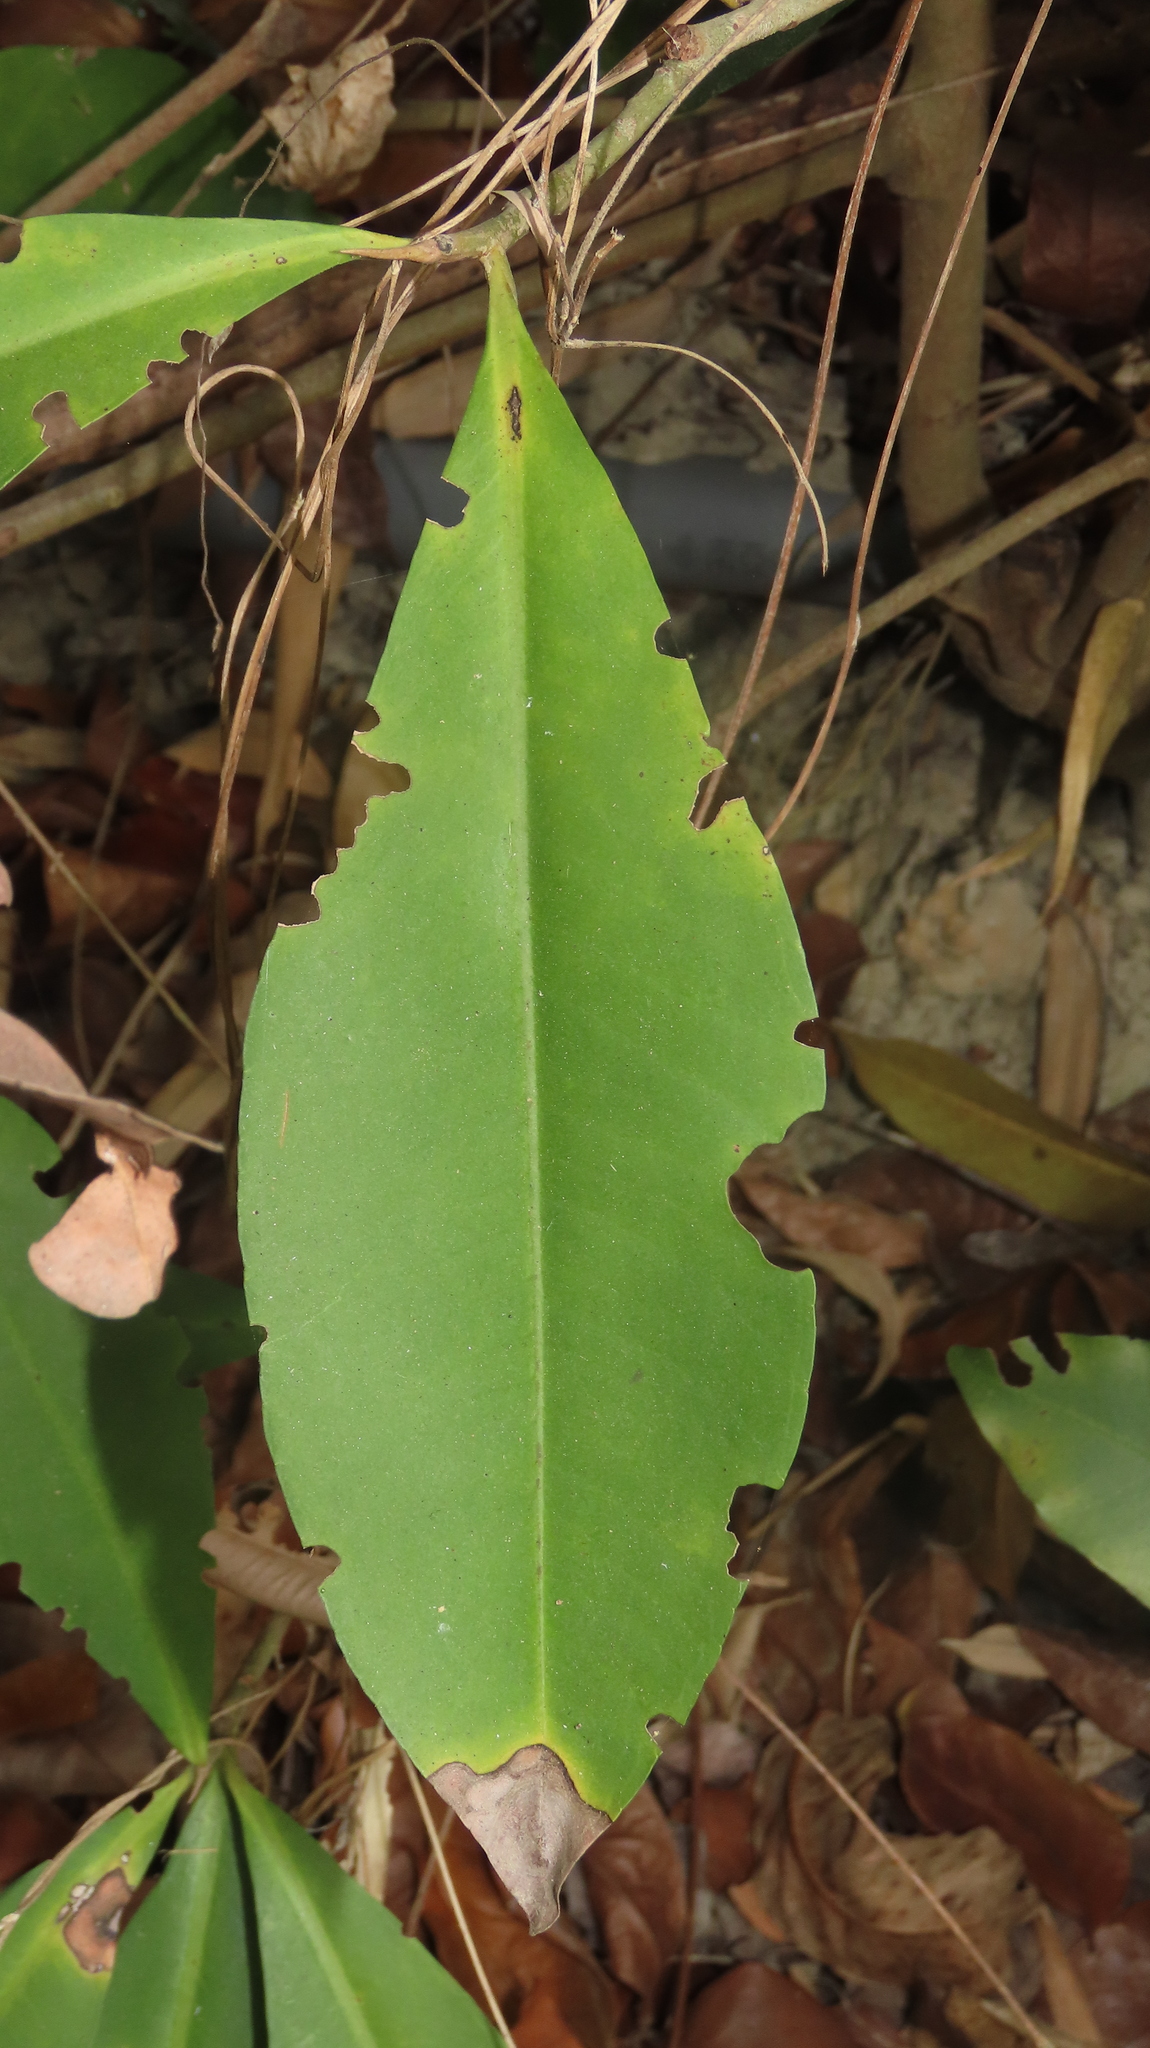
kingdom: Plantae
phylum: Tracheophyta
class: Magnoliopsida
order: Ericales
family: Primulaceae
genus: Ardisia
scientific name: Ardisia sieboldii
